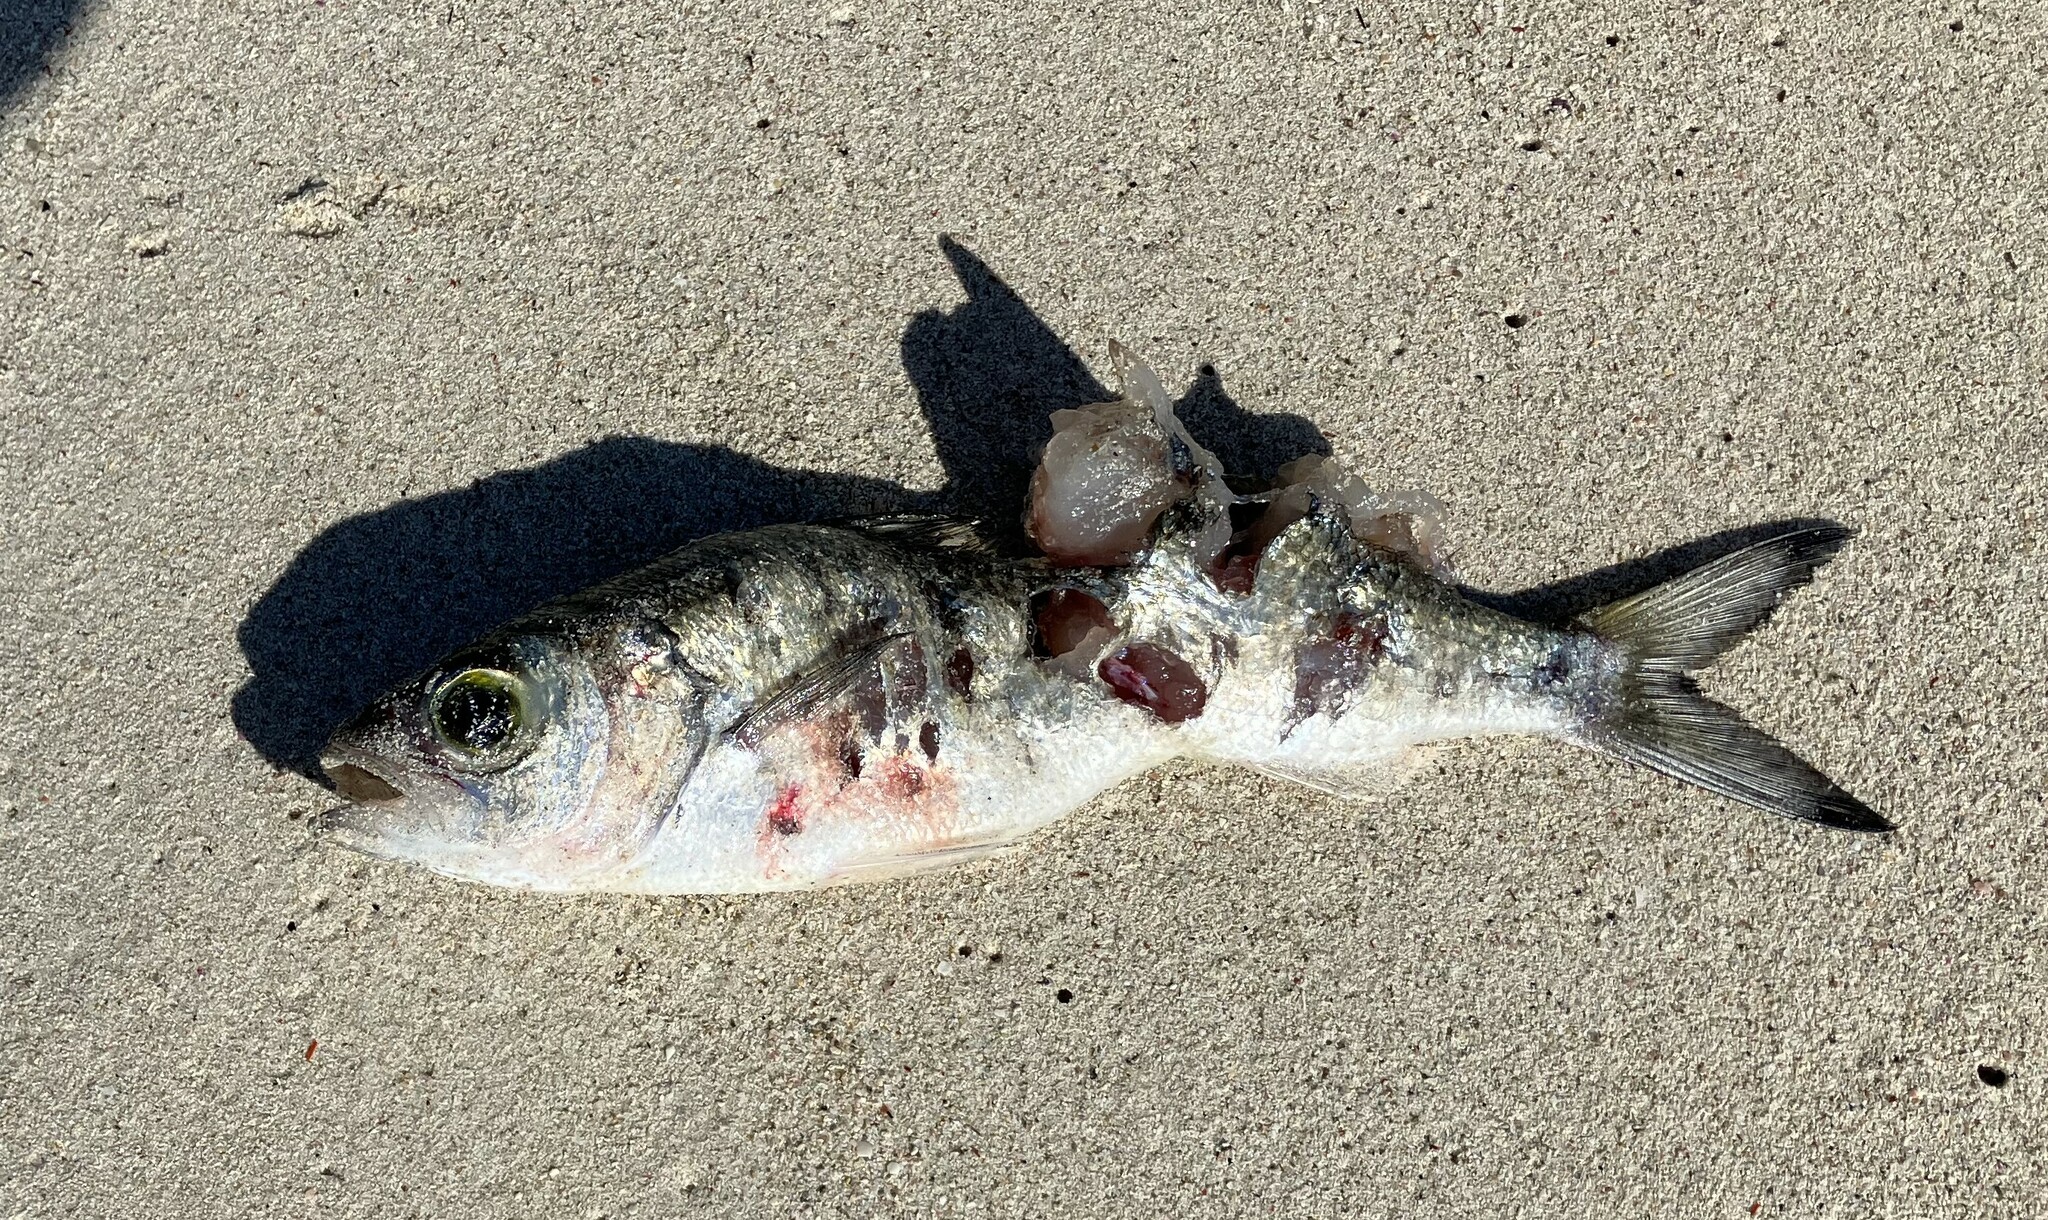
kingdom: Animalia
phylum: Chordata
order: Perciformes
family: Arripidae
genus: Arripis
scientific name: Arripis georgianus
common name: Australian herring
